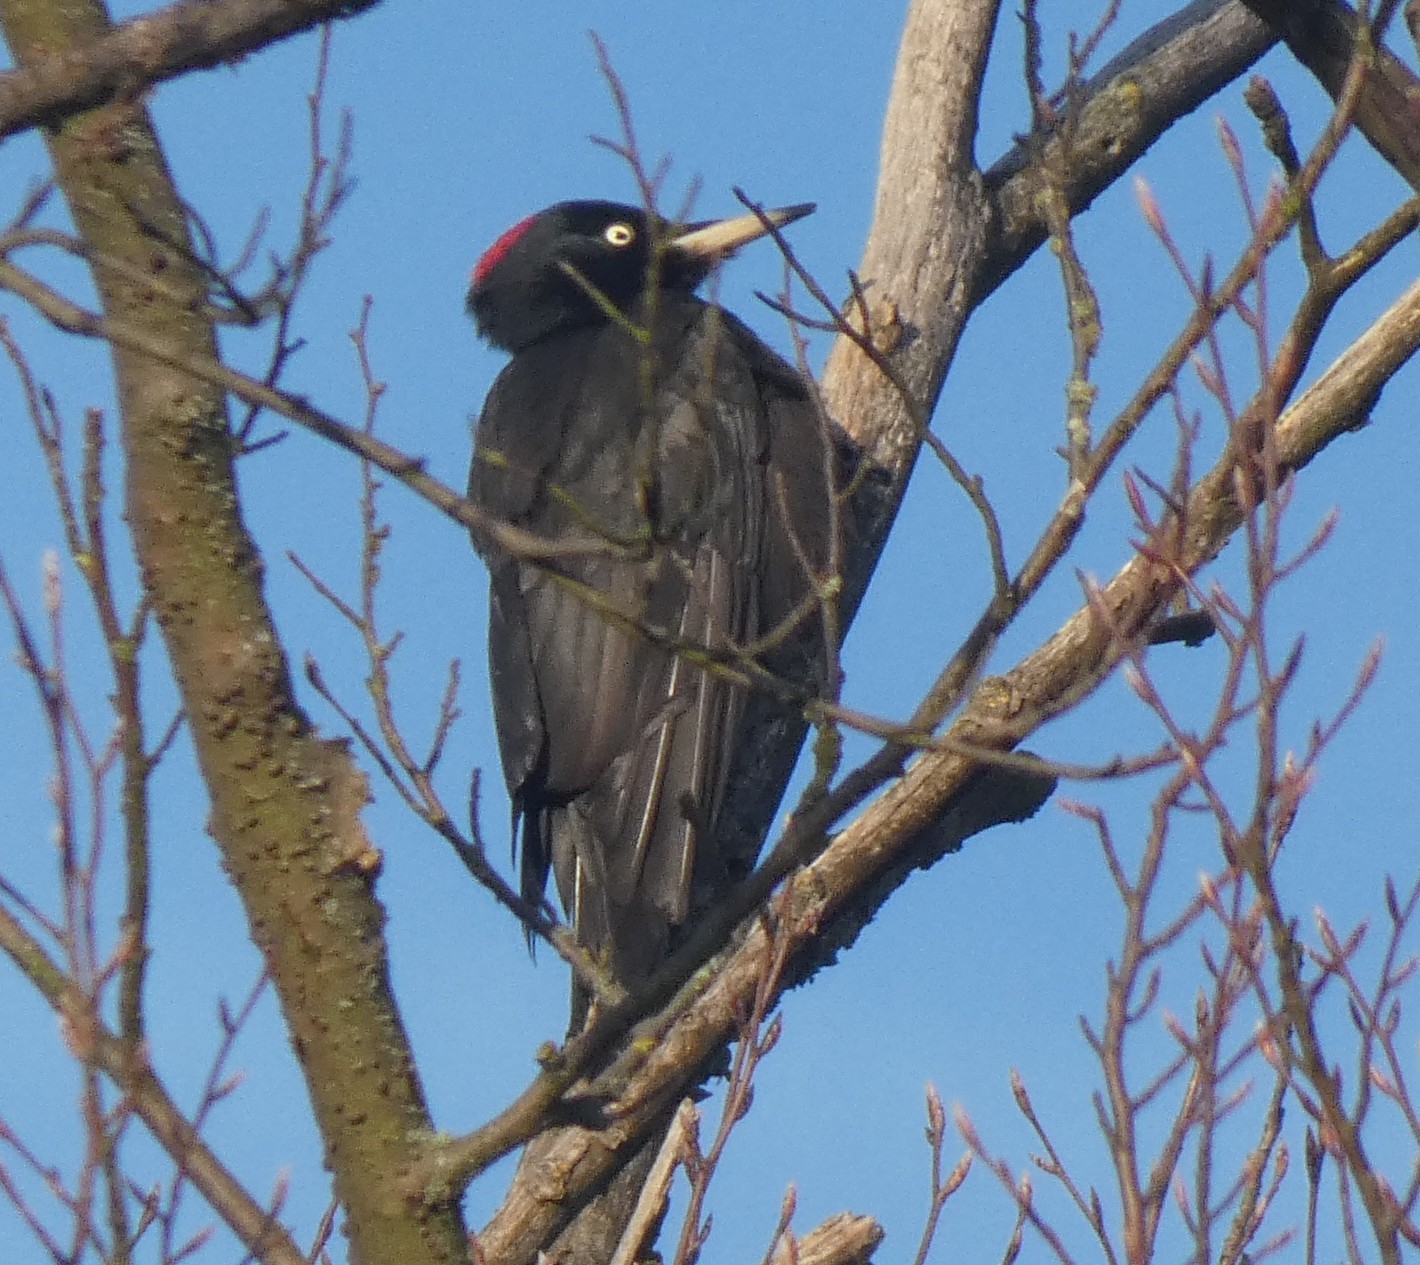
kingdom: Animalia
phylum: Chordata
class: Aves
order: Piciformes
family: Picidae
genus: Dryocopus
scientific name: Dryocopus martius
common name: Black woodpecker
